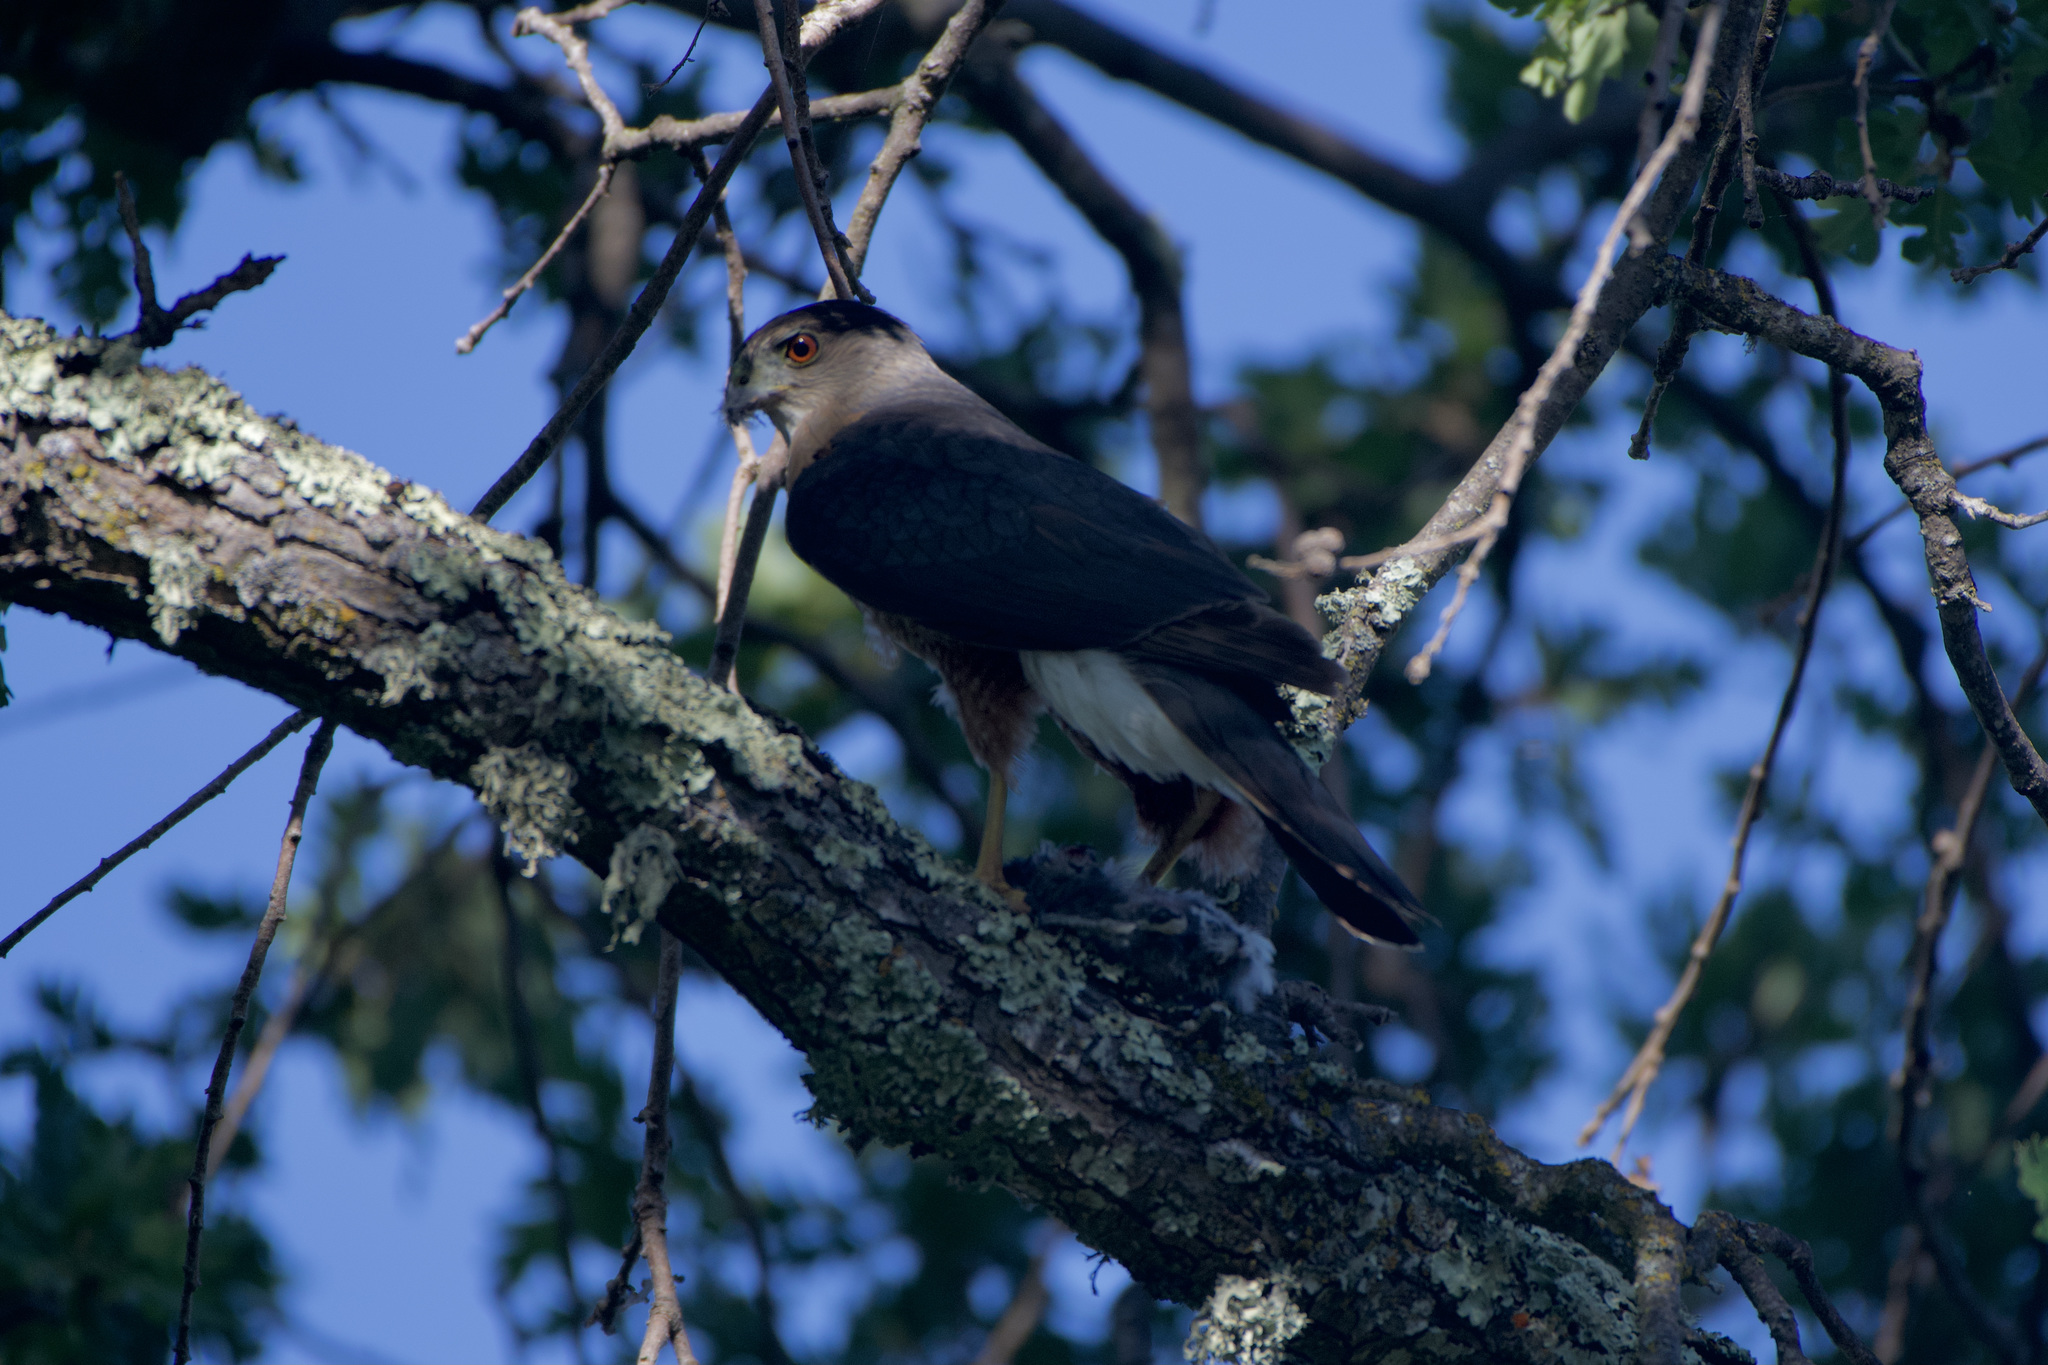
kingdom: Animalia
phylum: Chordata
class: Aves
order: Accipitriformes
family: Accipitridae
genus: Accipiter
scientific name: Accipiter cooperii
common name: Cooper's hawk
